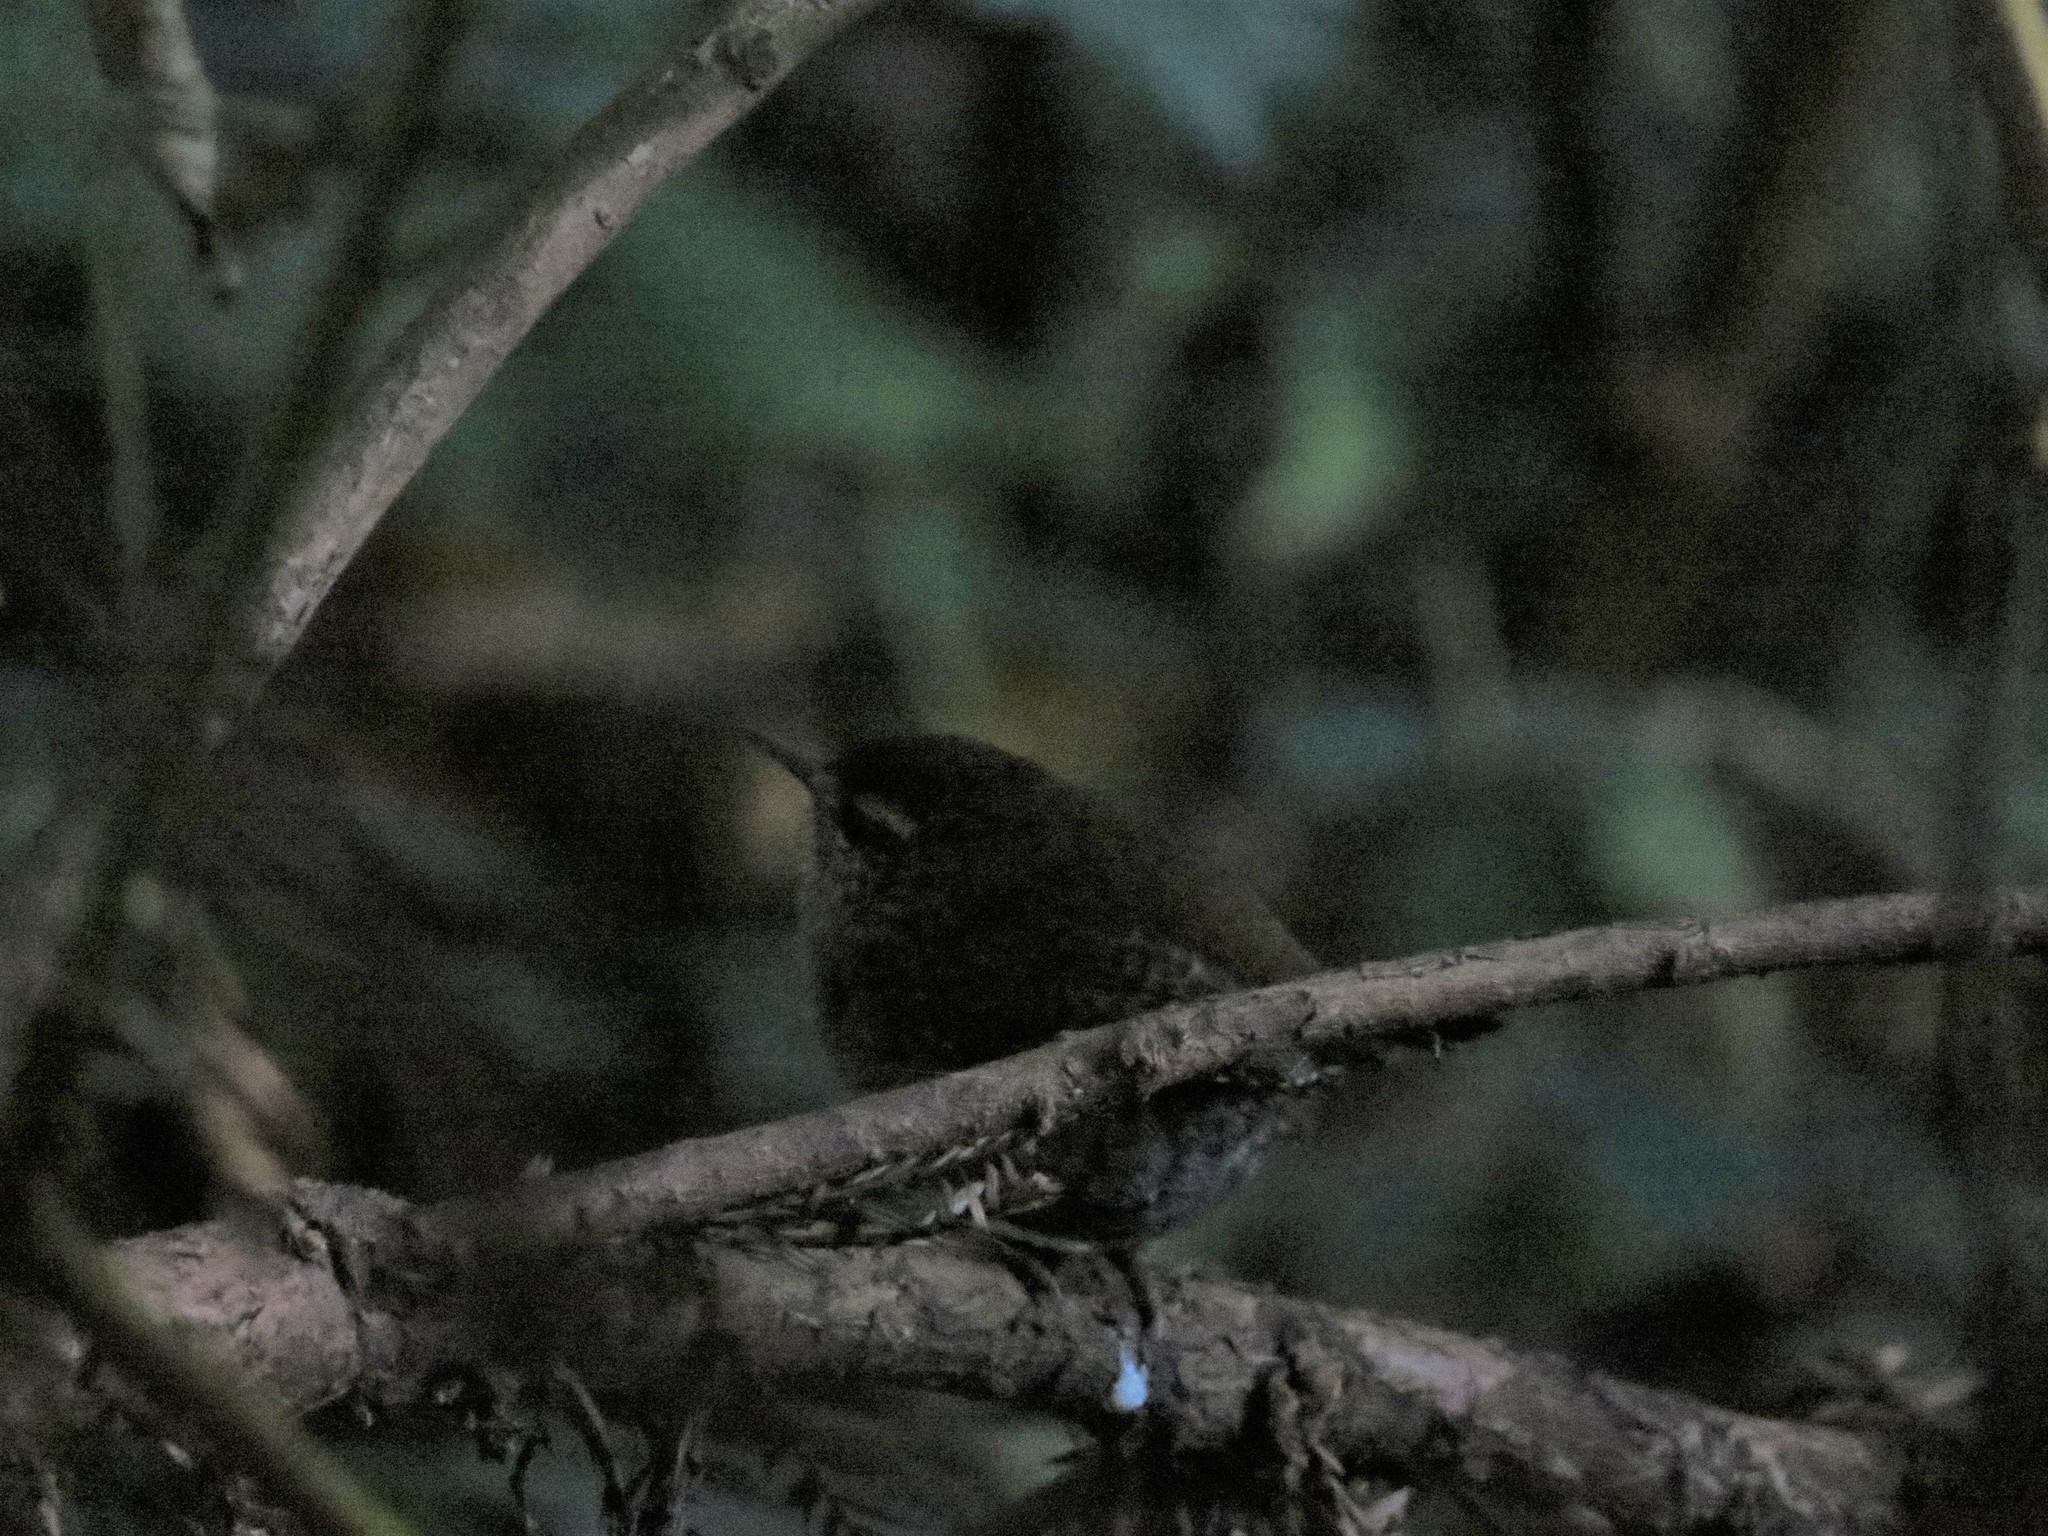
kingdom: Animalia
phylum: Chordata
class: Aves
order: Passeriformes
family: Troglodytidae
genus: Troglodytes
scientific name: Troglodytes pacificus
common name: Pacific wren
